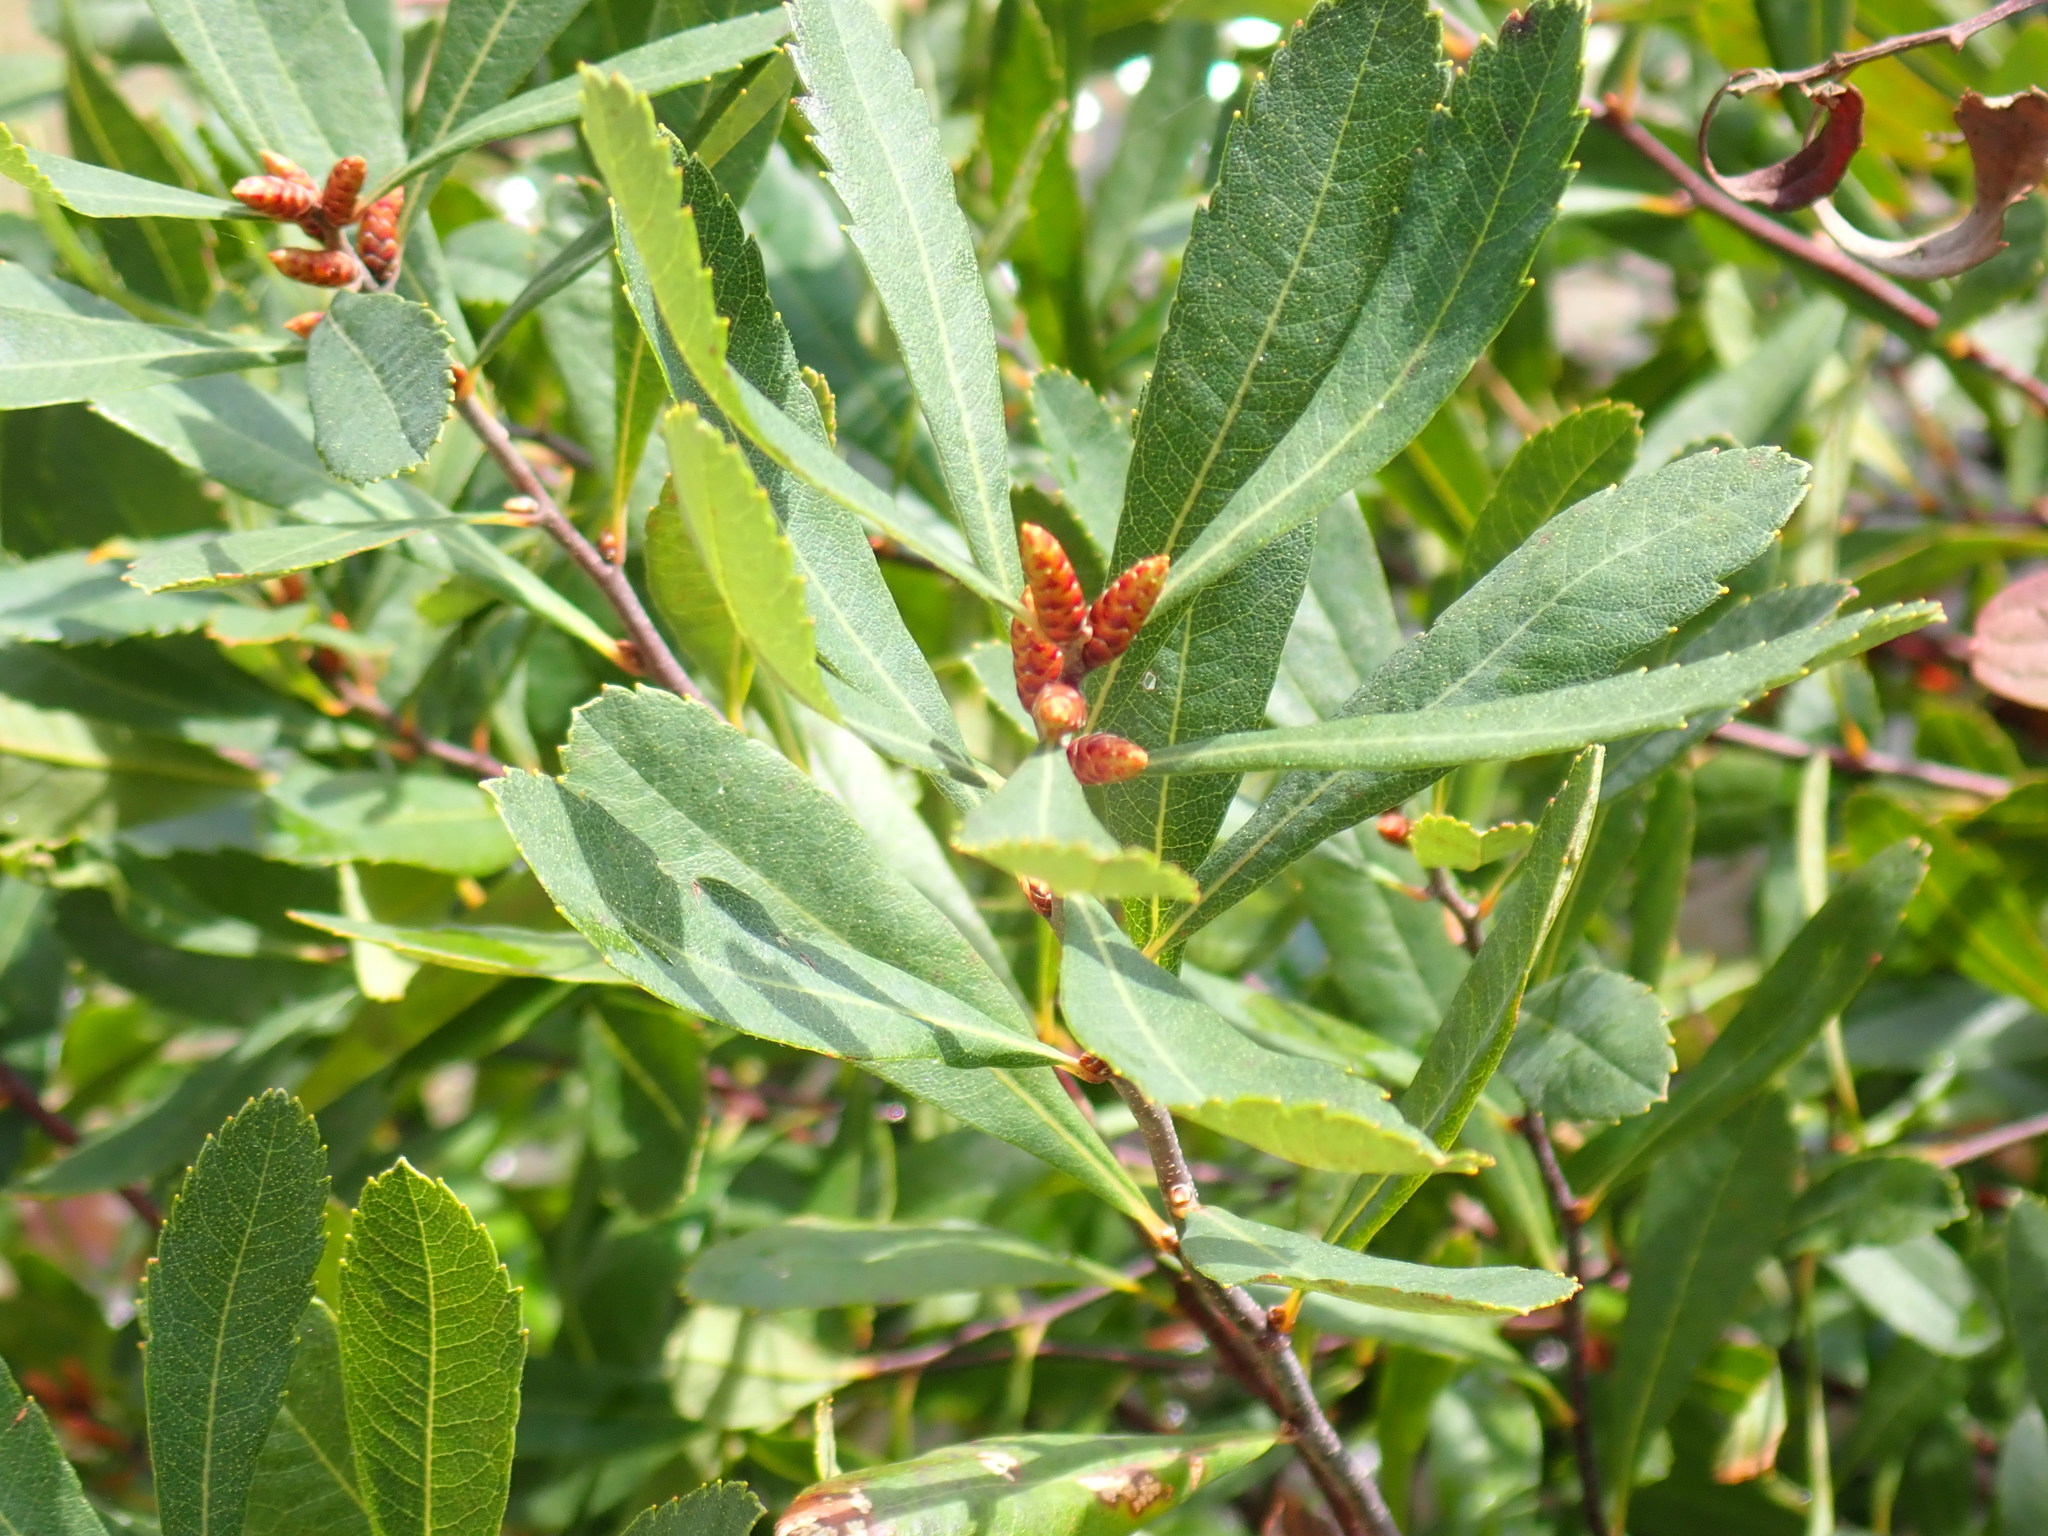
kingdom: Plantae
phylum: Tracheophyta
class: Magnoliopsida
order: Fagales
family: Myricaceae
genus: Myrica
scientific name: Myrica gale
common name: Sweet gale
